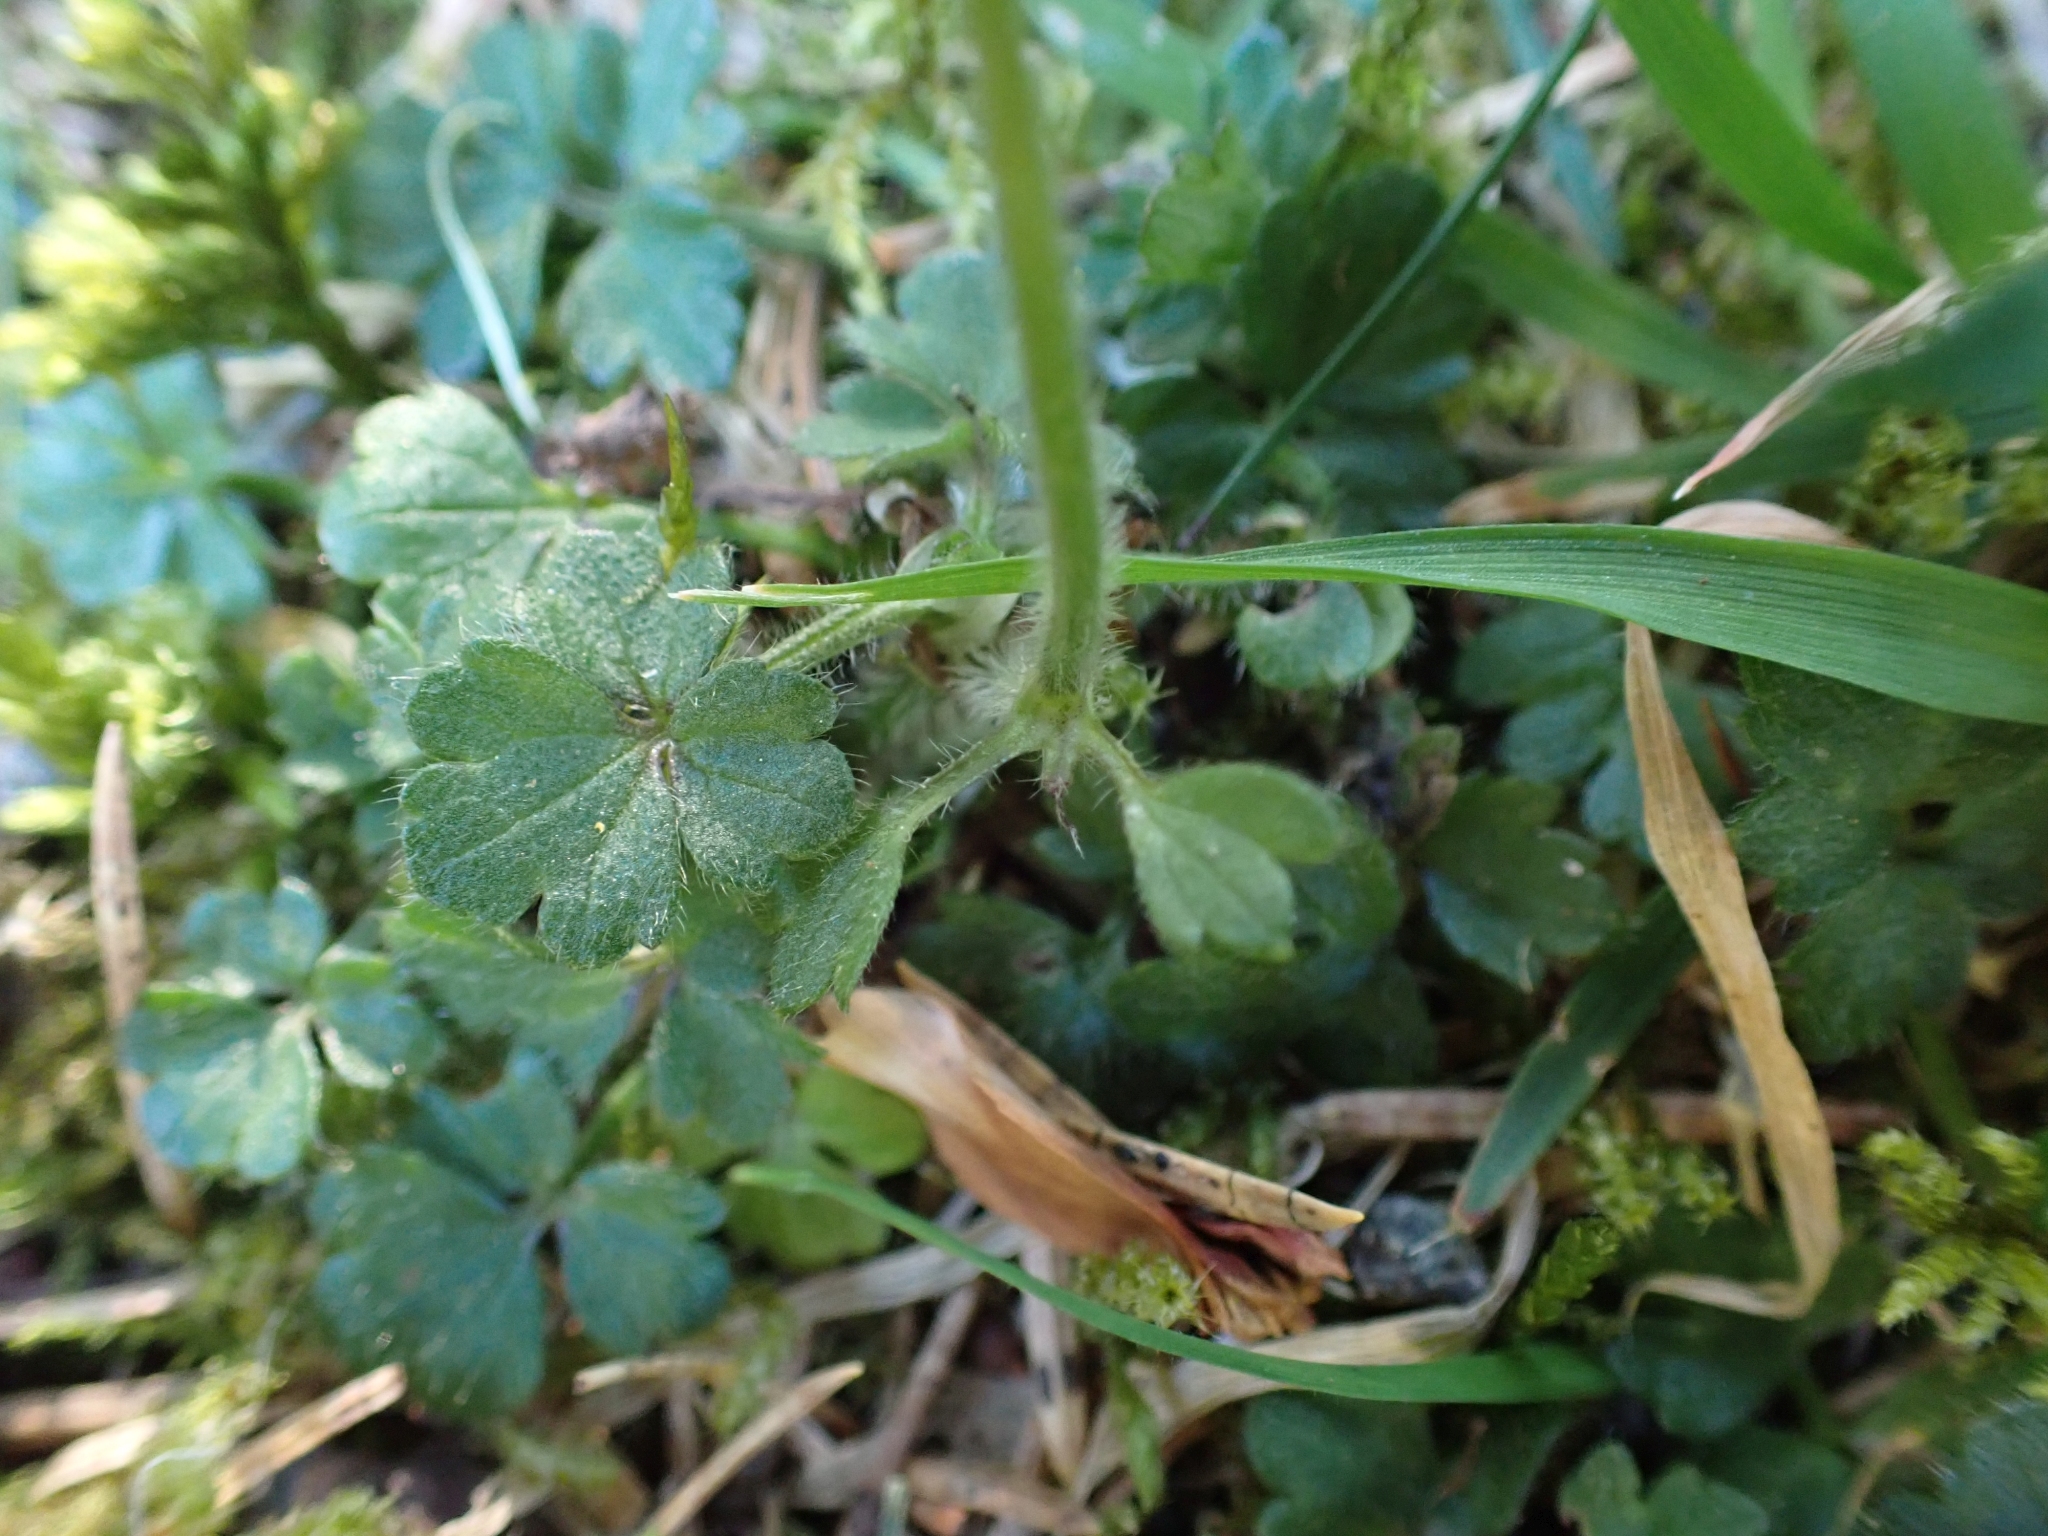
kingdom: Plantae
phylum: Tracheophyta
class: Magnoliopsida
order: Ranunculales
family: Ranunculaceae
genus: Ranunculus
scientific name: Ranunculus repens
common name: Creeping buttercup
